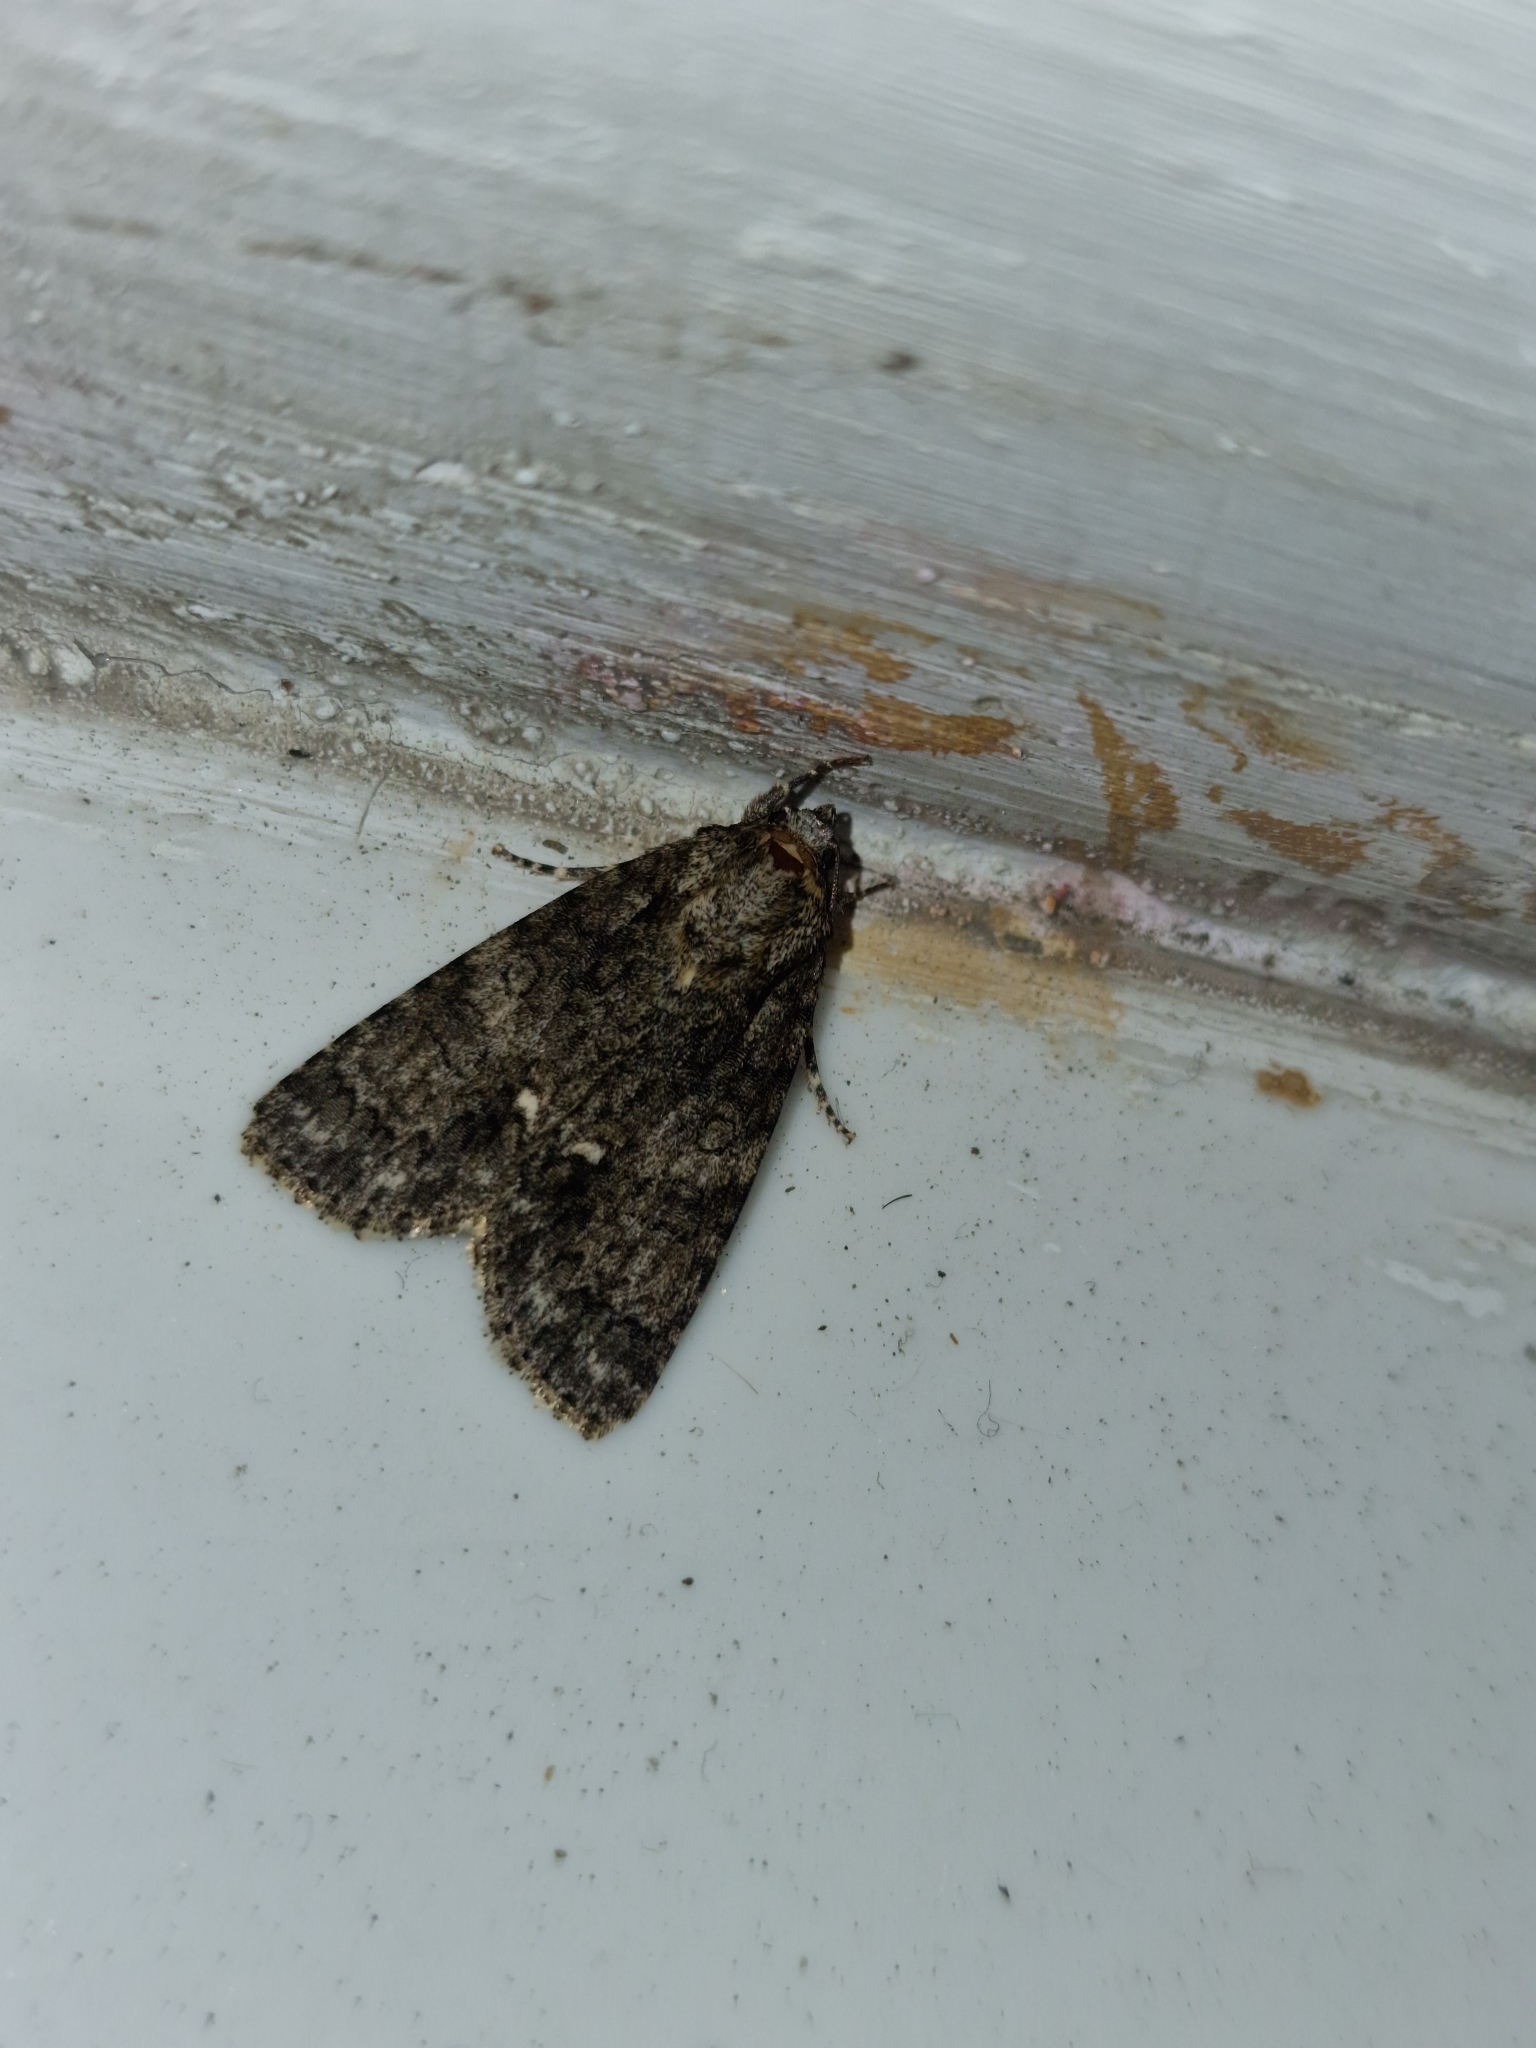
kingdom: Animalia
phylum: Arthropoda
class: Insecta
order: Lepidoptera
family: Noctuidae
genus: Acronicta
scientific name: Acronicta rumicis
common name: Knot grass
